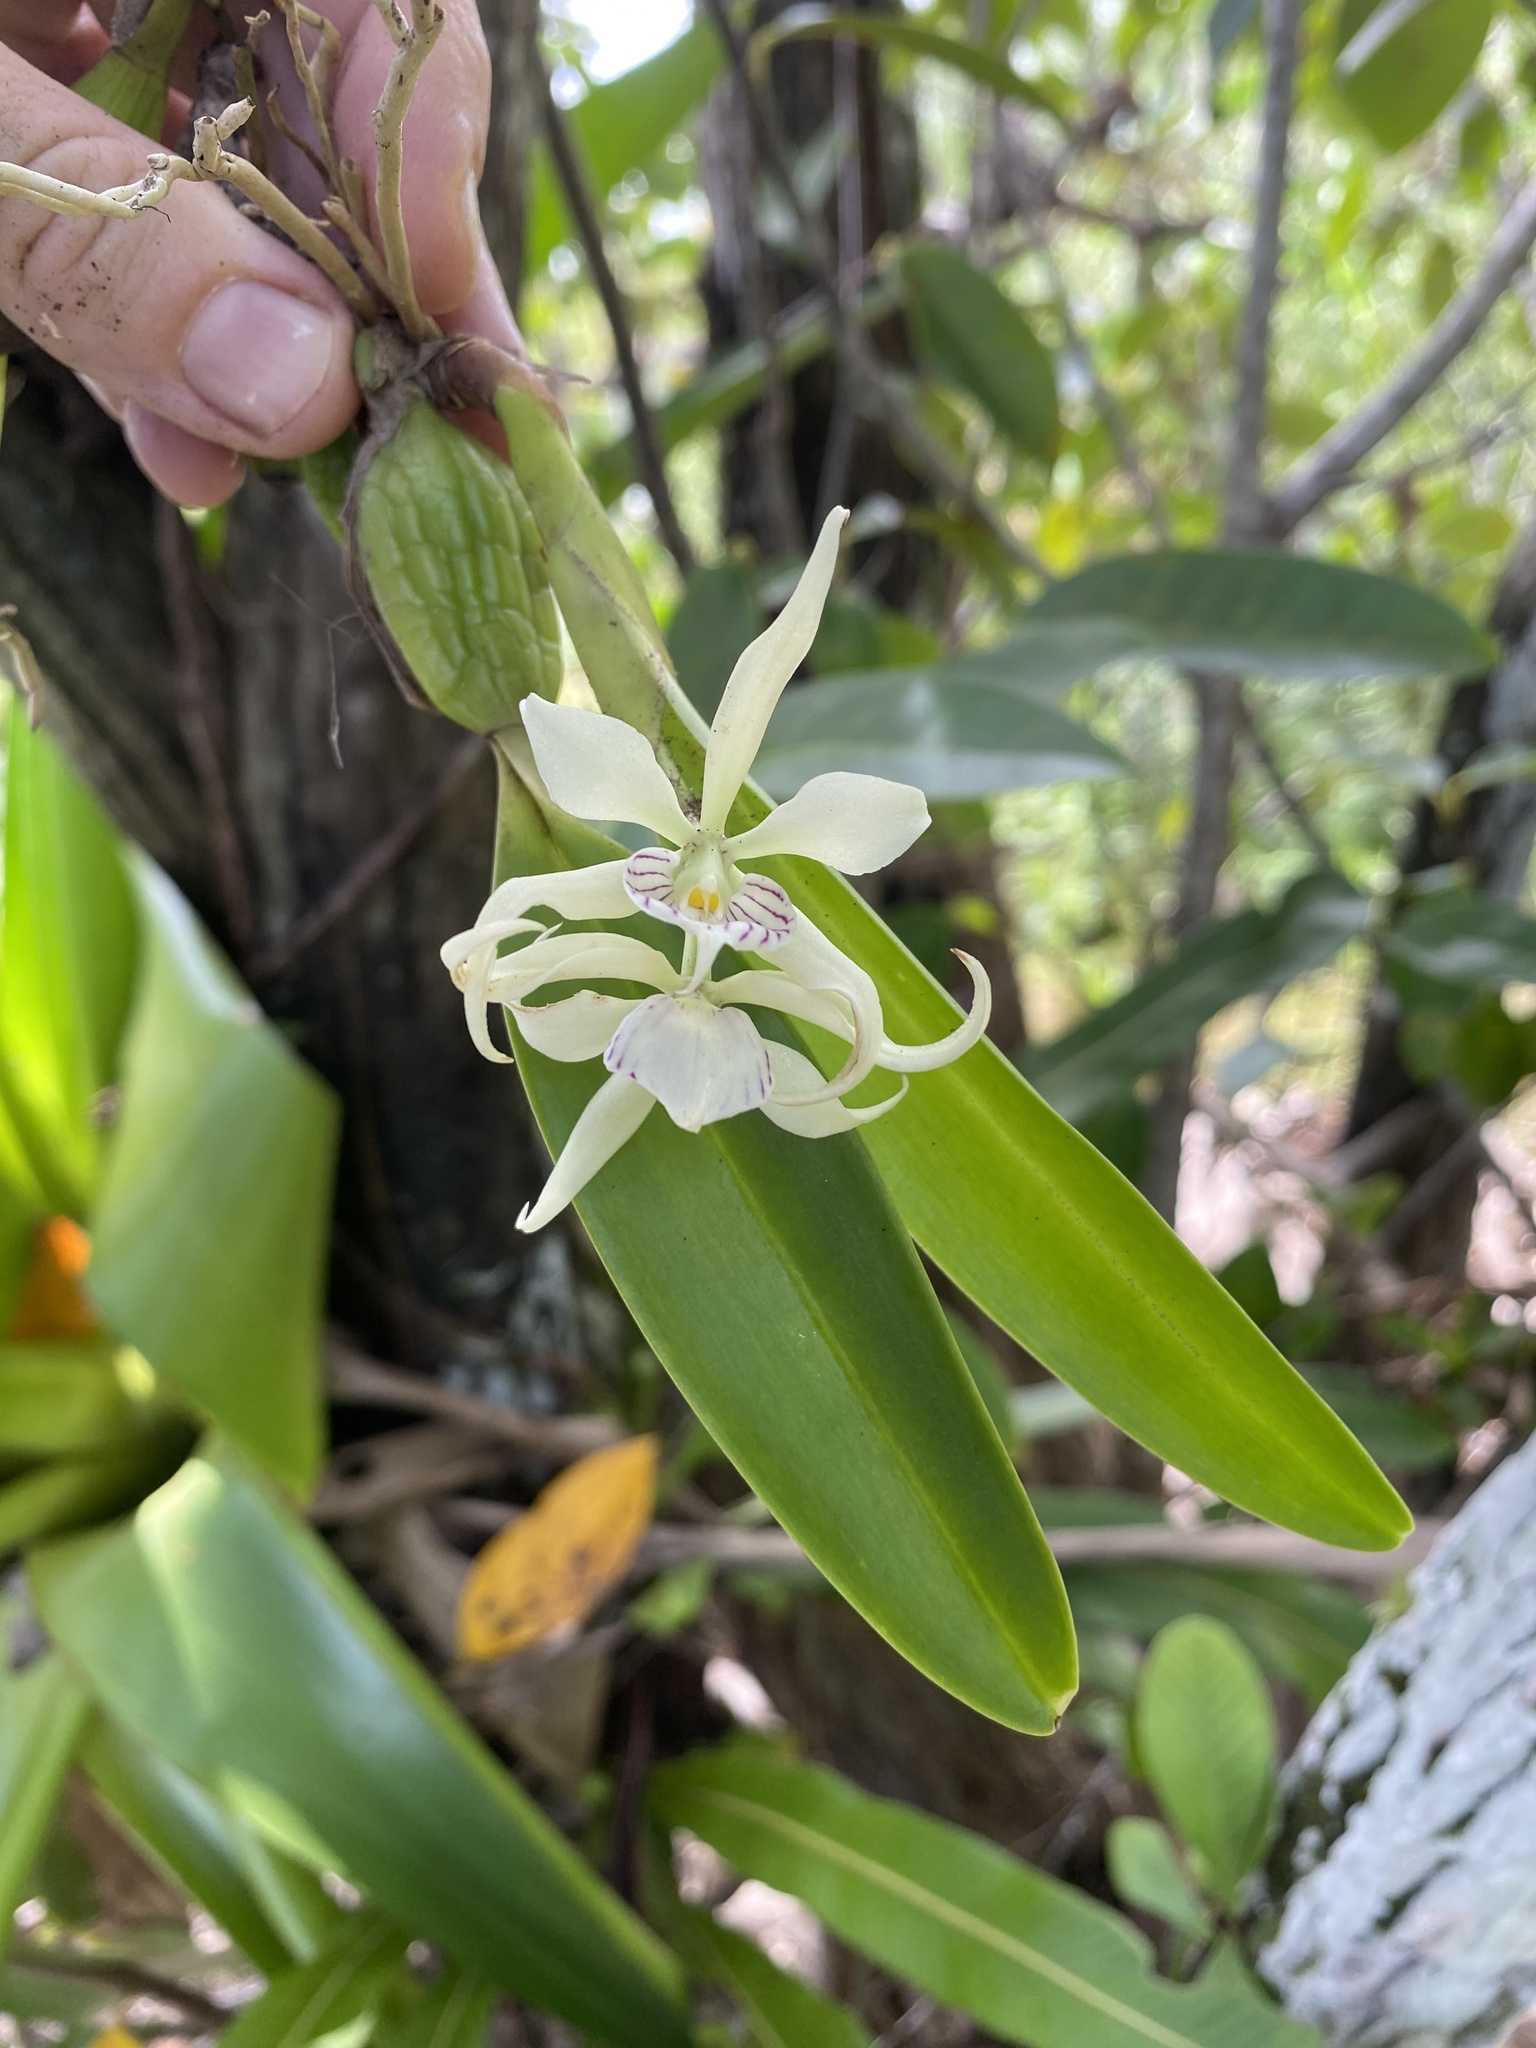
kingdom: Plantae
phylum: Tracheophyta
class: Liliopsida
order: Asparagales
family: Orchidaceae
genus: Prosthechea
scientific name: Prosthechea fragrans
